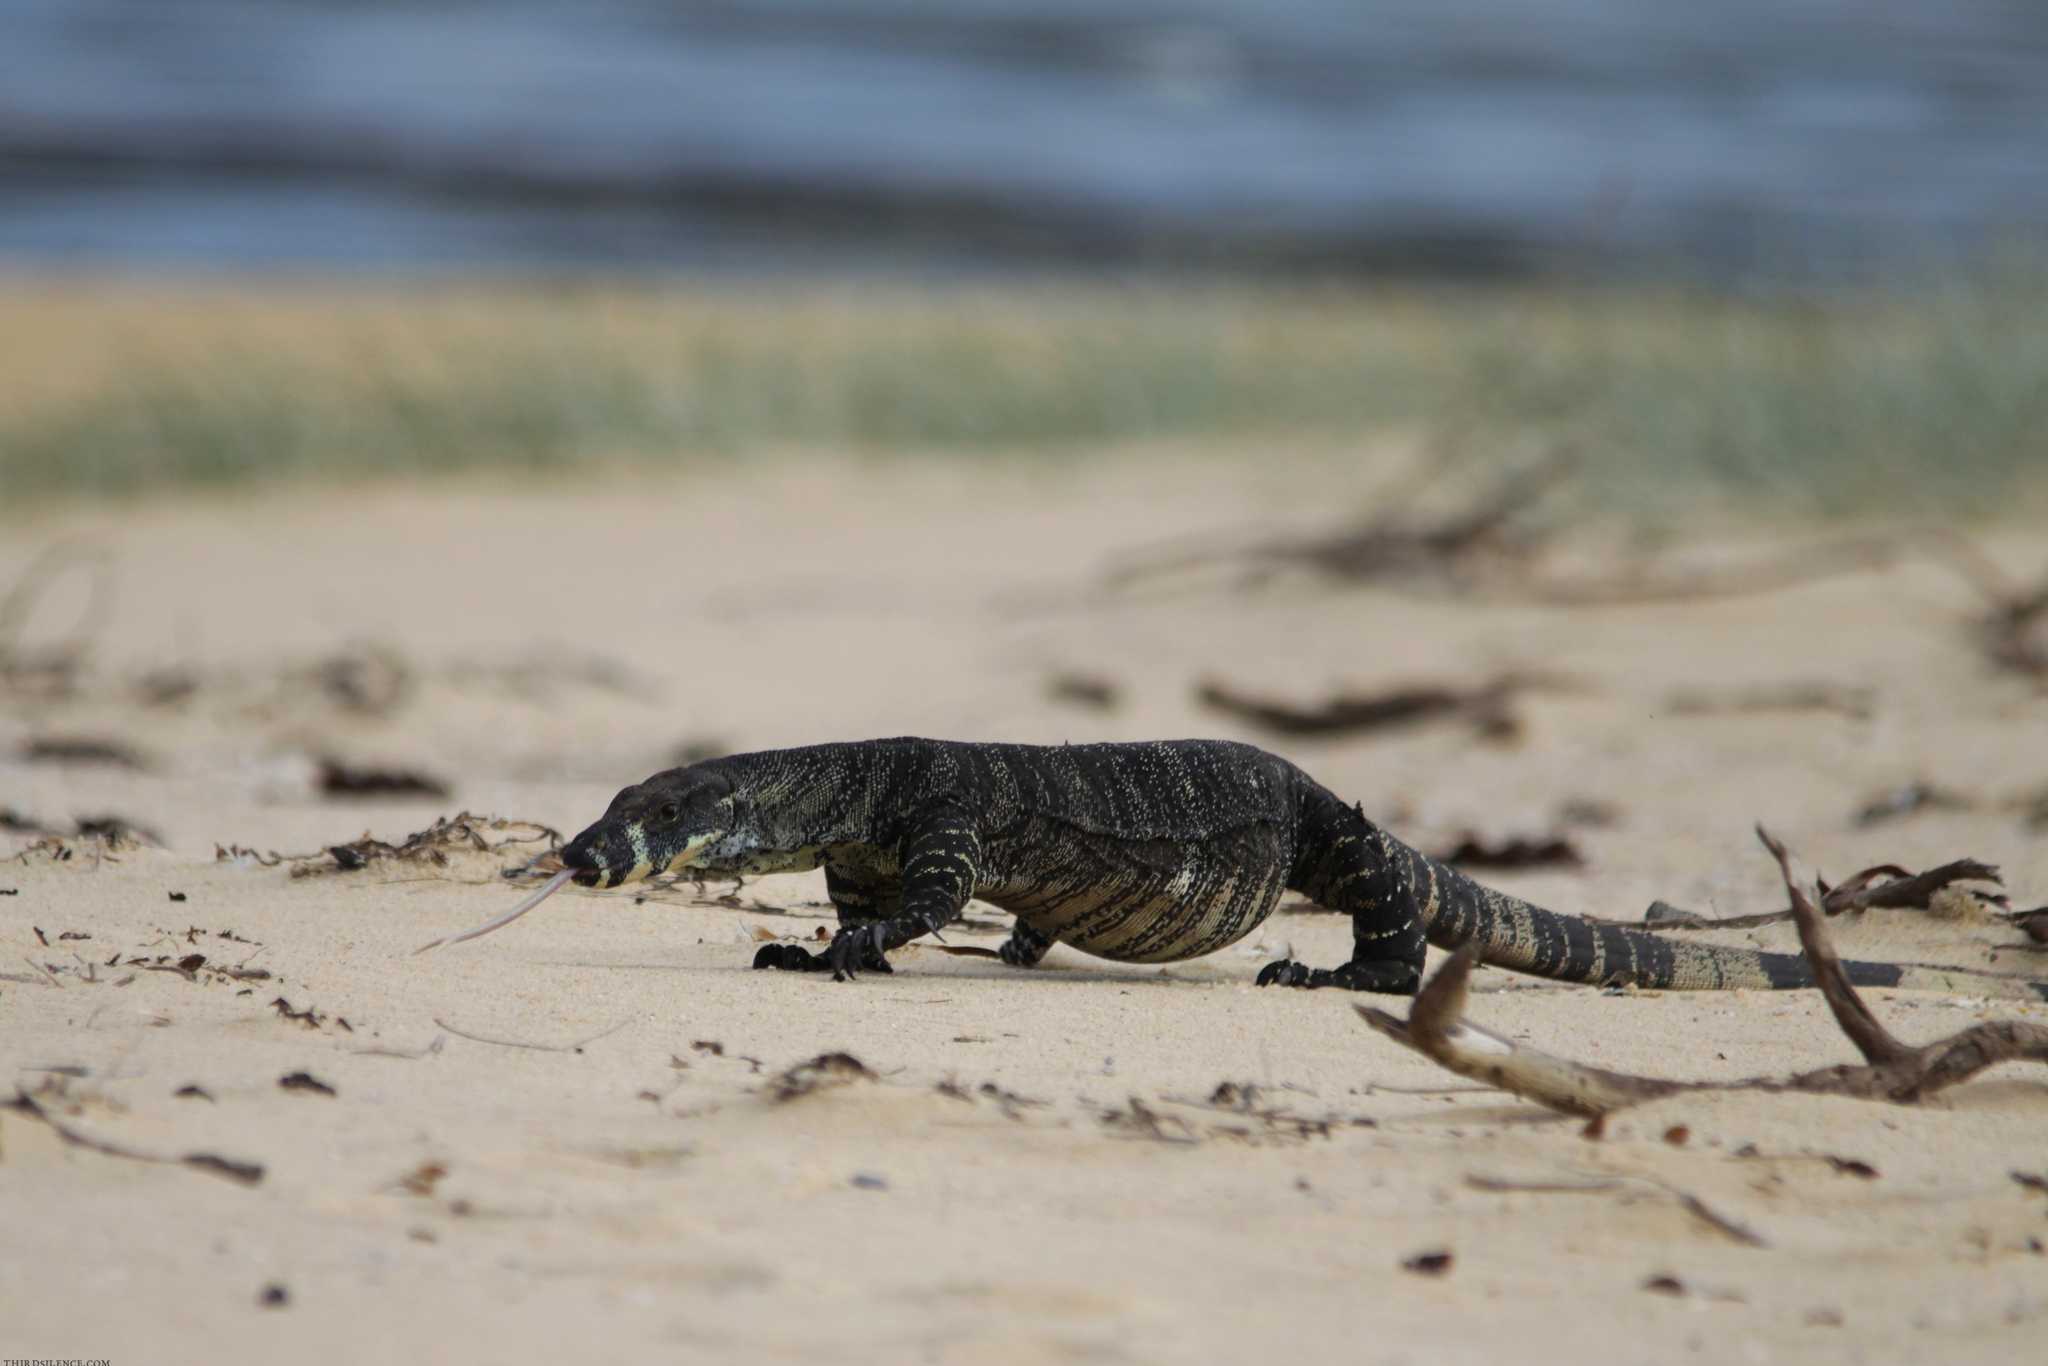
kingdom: Animalia
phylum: Chordata
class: Squamata
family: Varanidae
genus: Varanus
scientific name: Varanus varius
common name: Lace monitor
